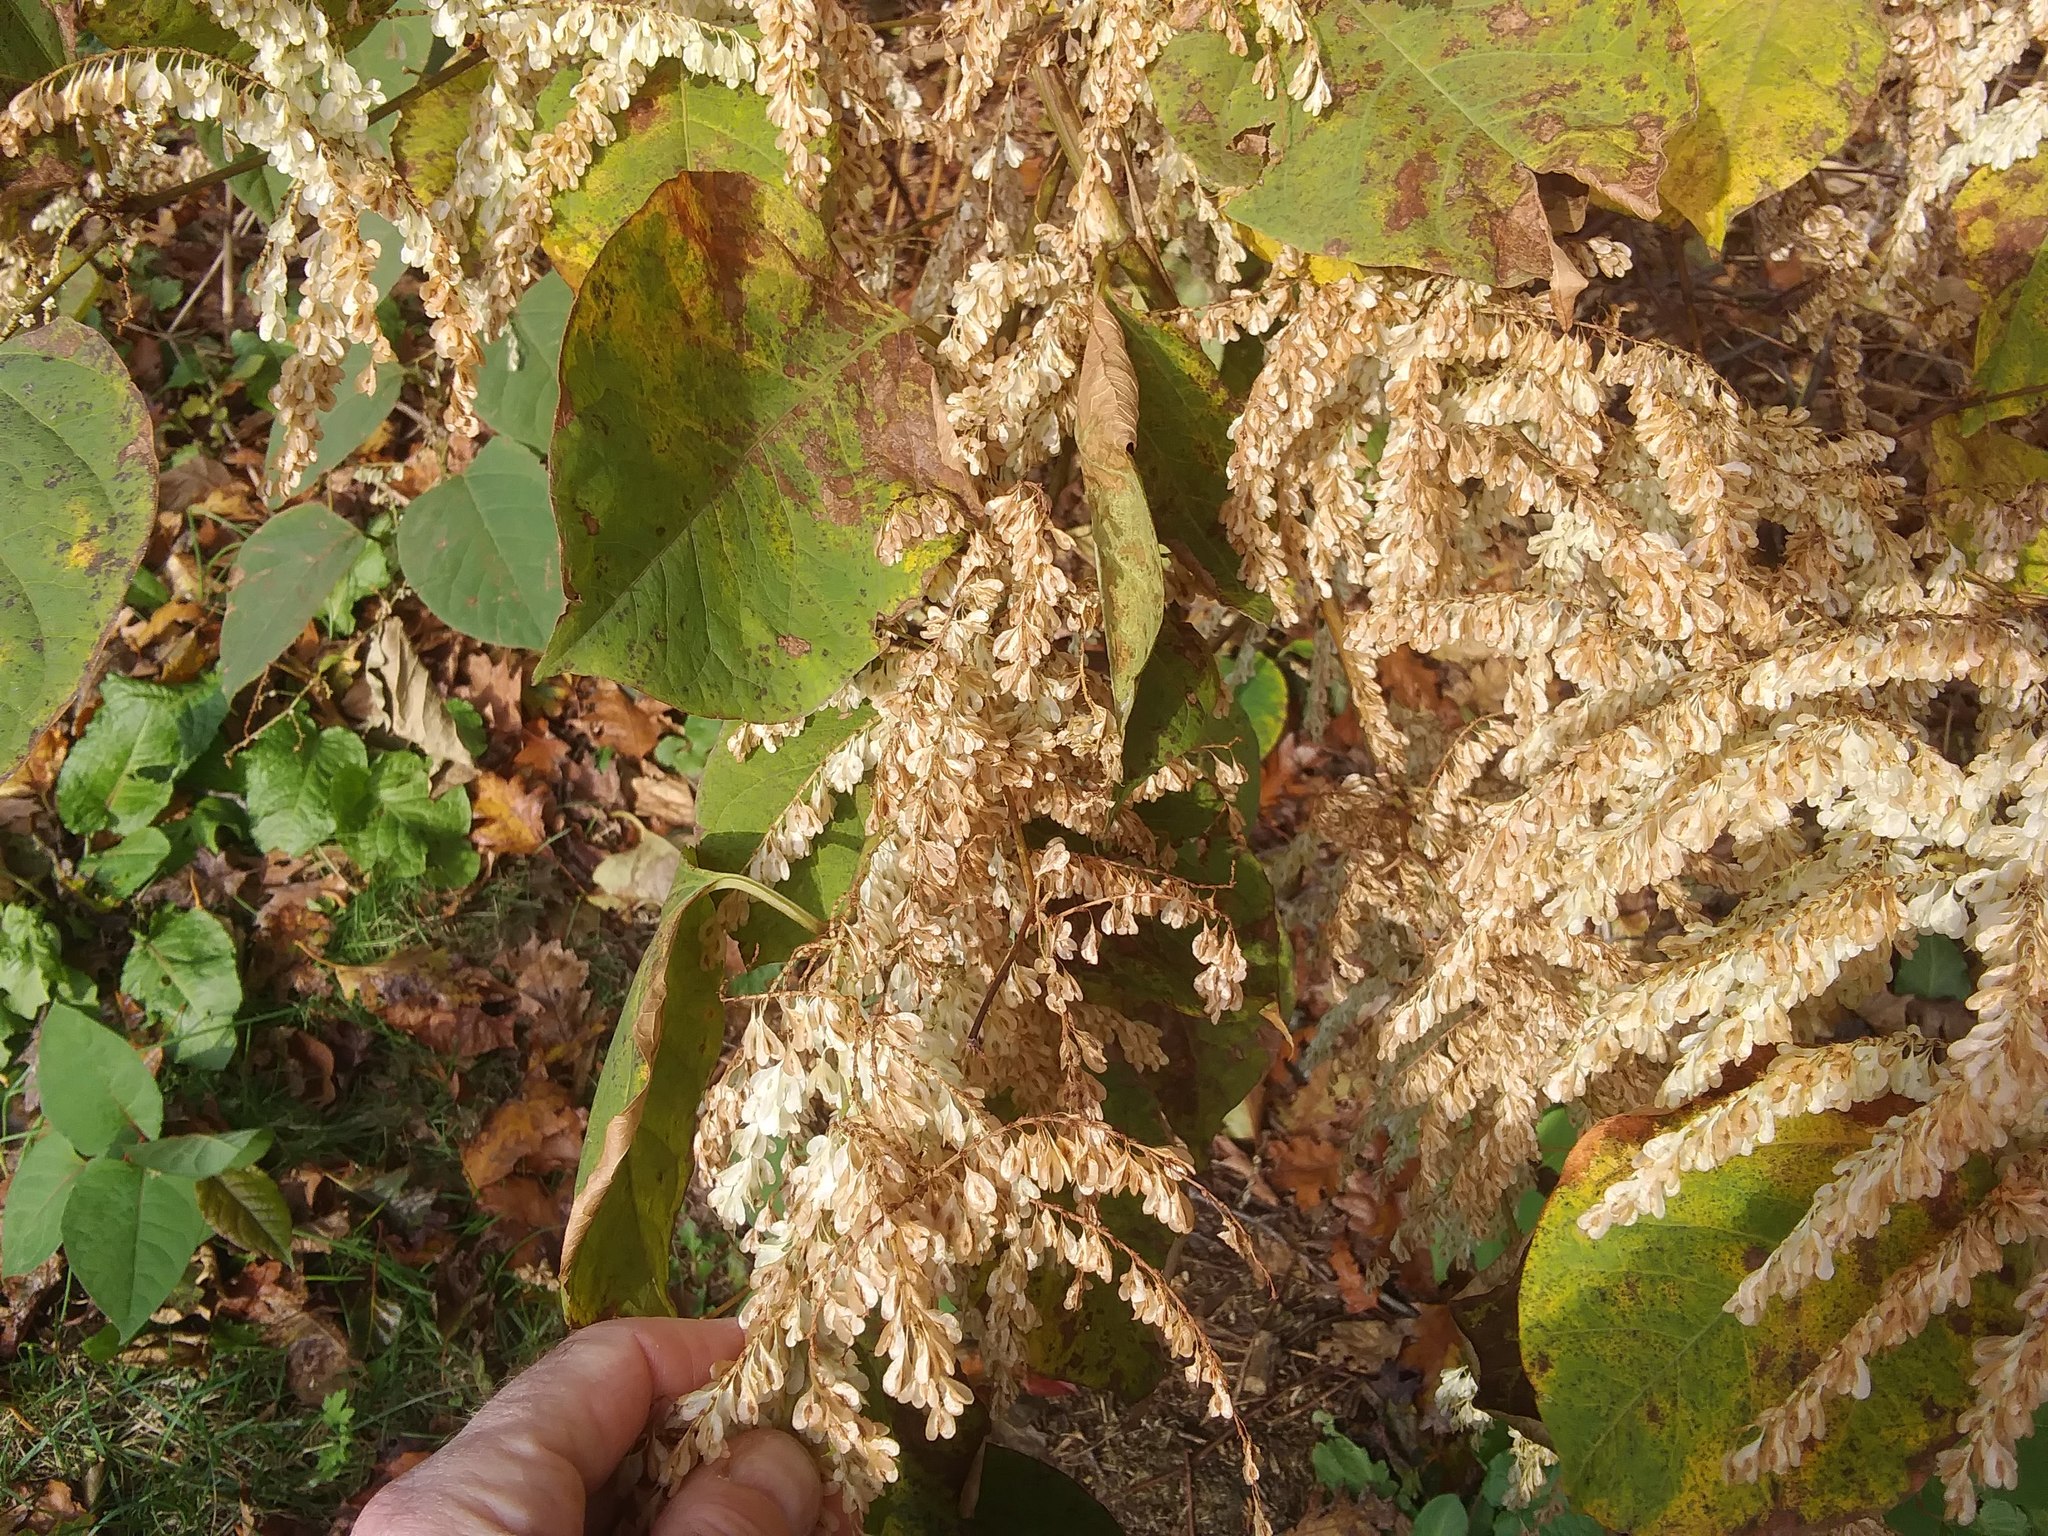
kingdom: Plantae
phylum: Tracheophyta
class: Magnoliopsida
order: Caryophyllales
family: Polygonaceae
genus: Reynoutria
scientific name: Reynoutria japonica
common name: Japanese knotweed
